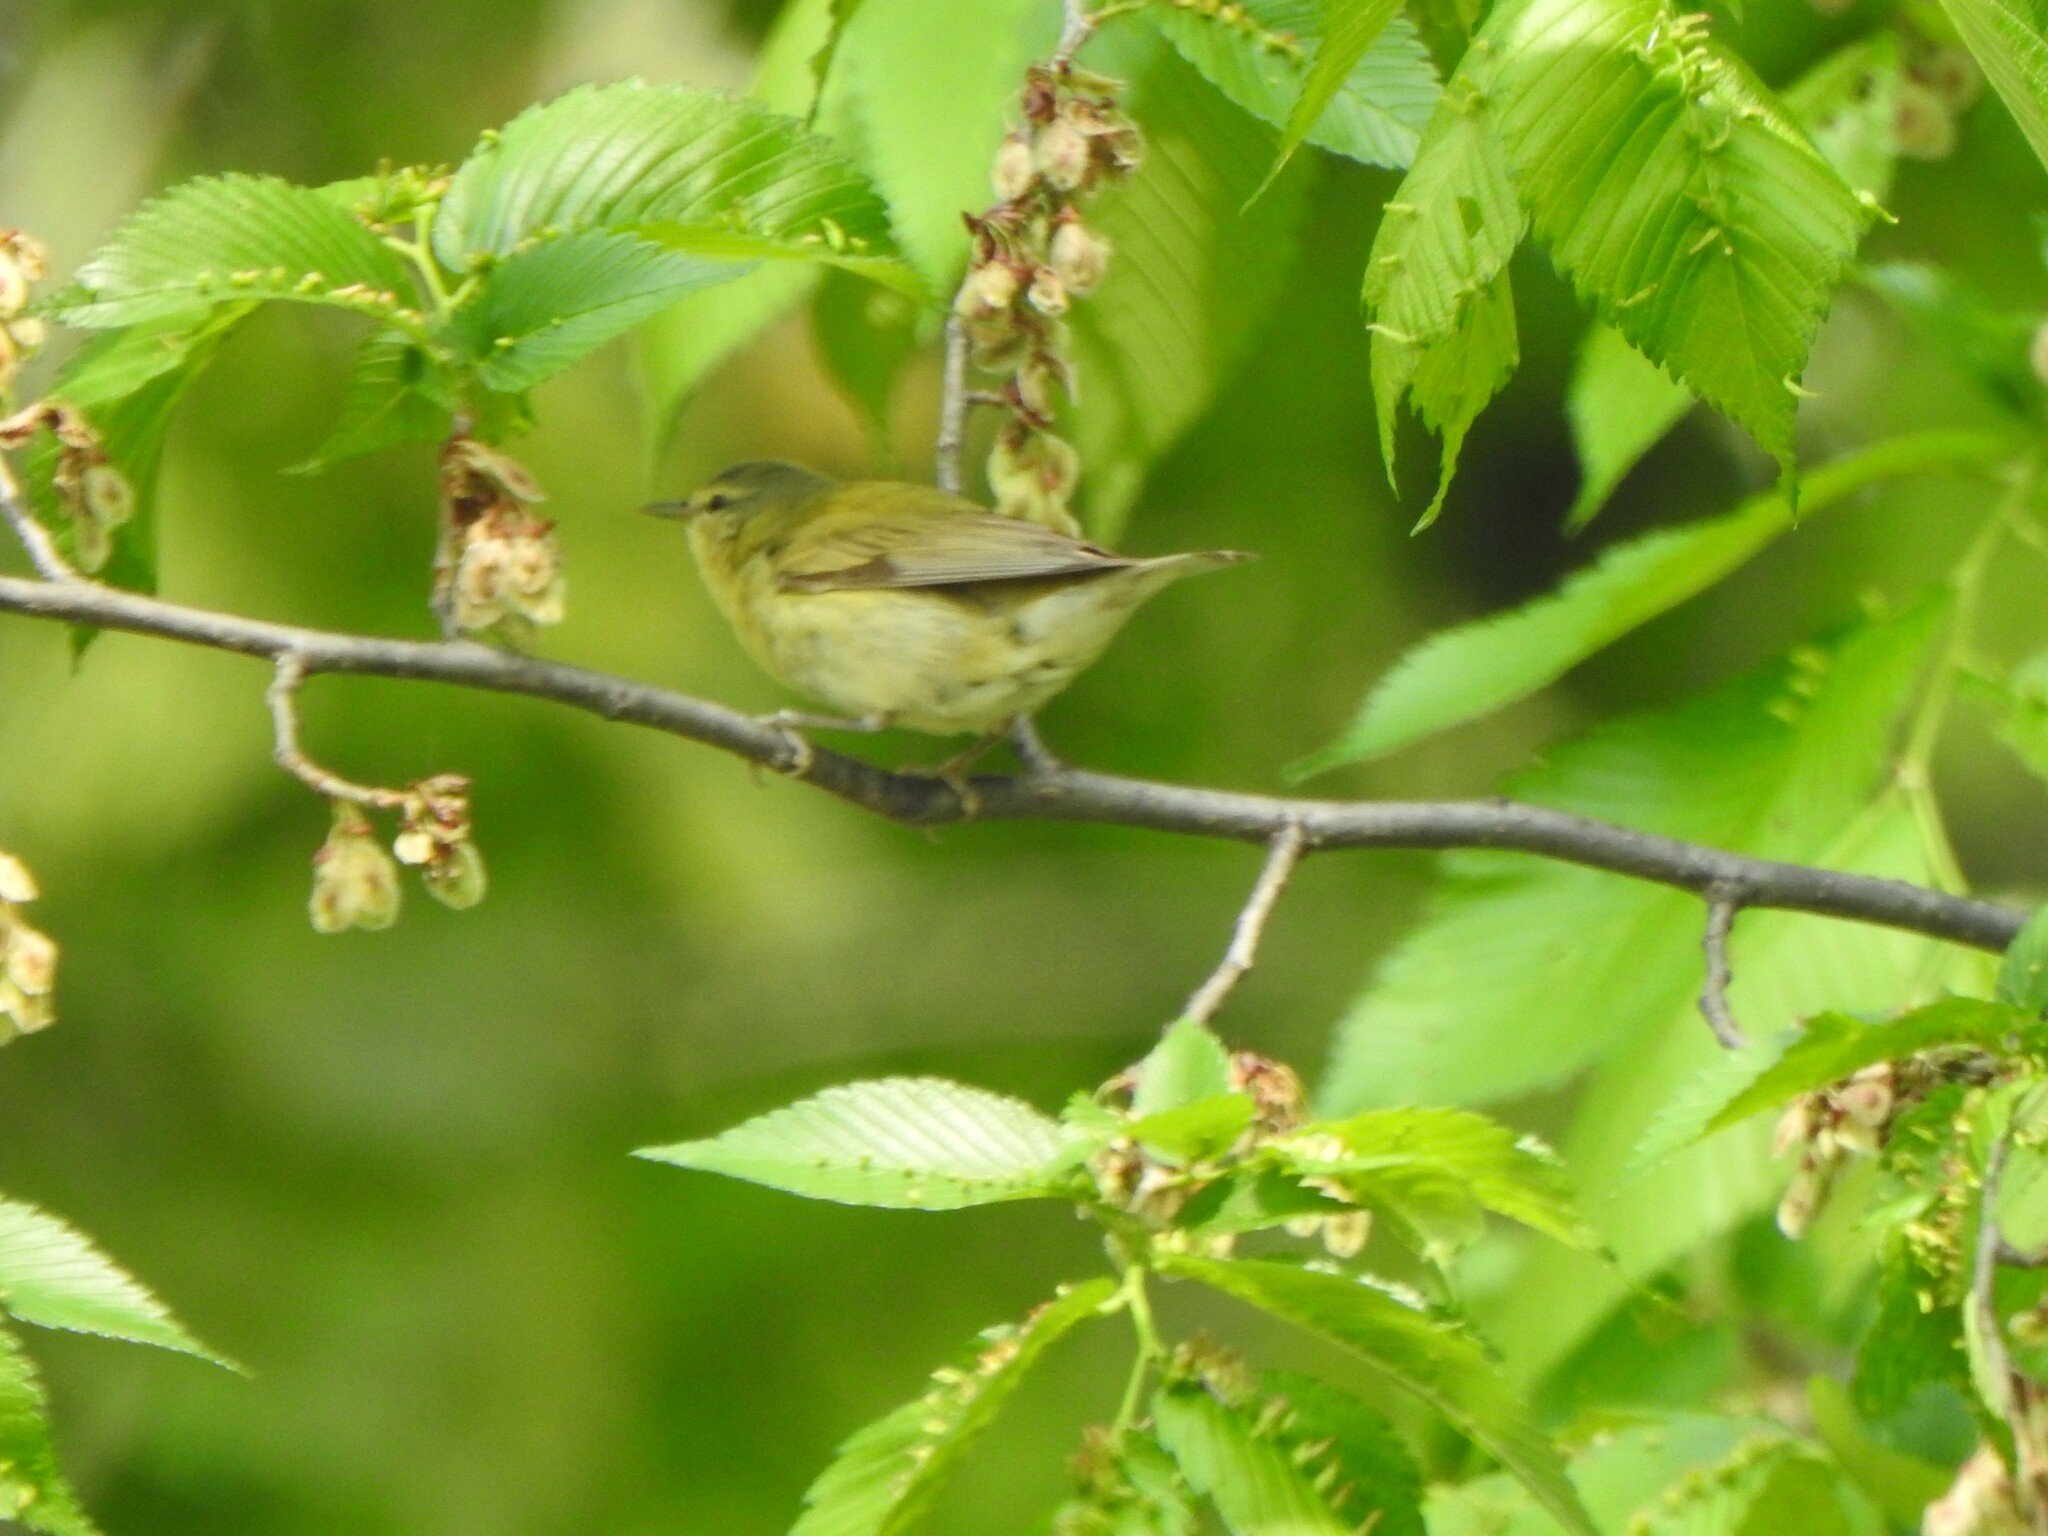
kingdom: Animalia
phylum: Chordata
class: Aves
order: Passeriformes
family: Parulidae
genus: Leiothlypis
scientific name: Leiothlypis peregrina
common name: Tennessee warbler
